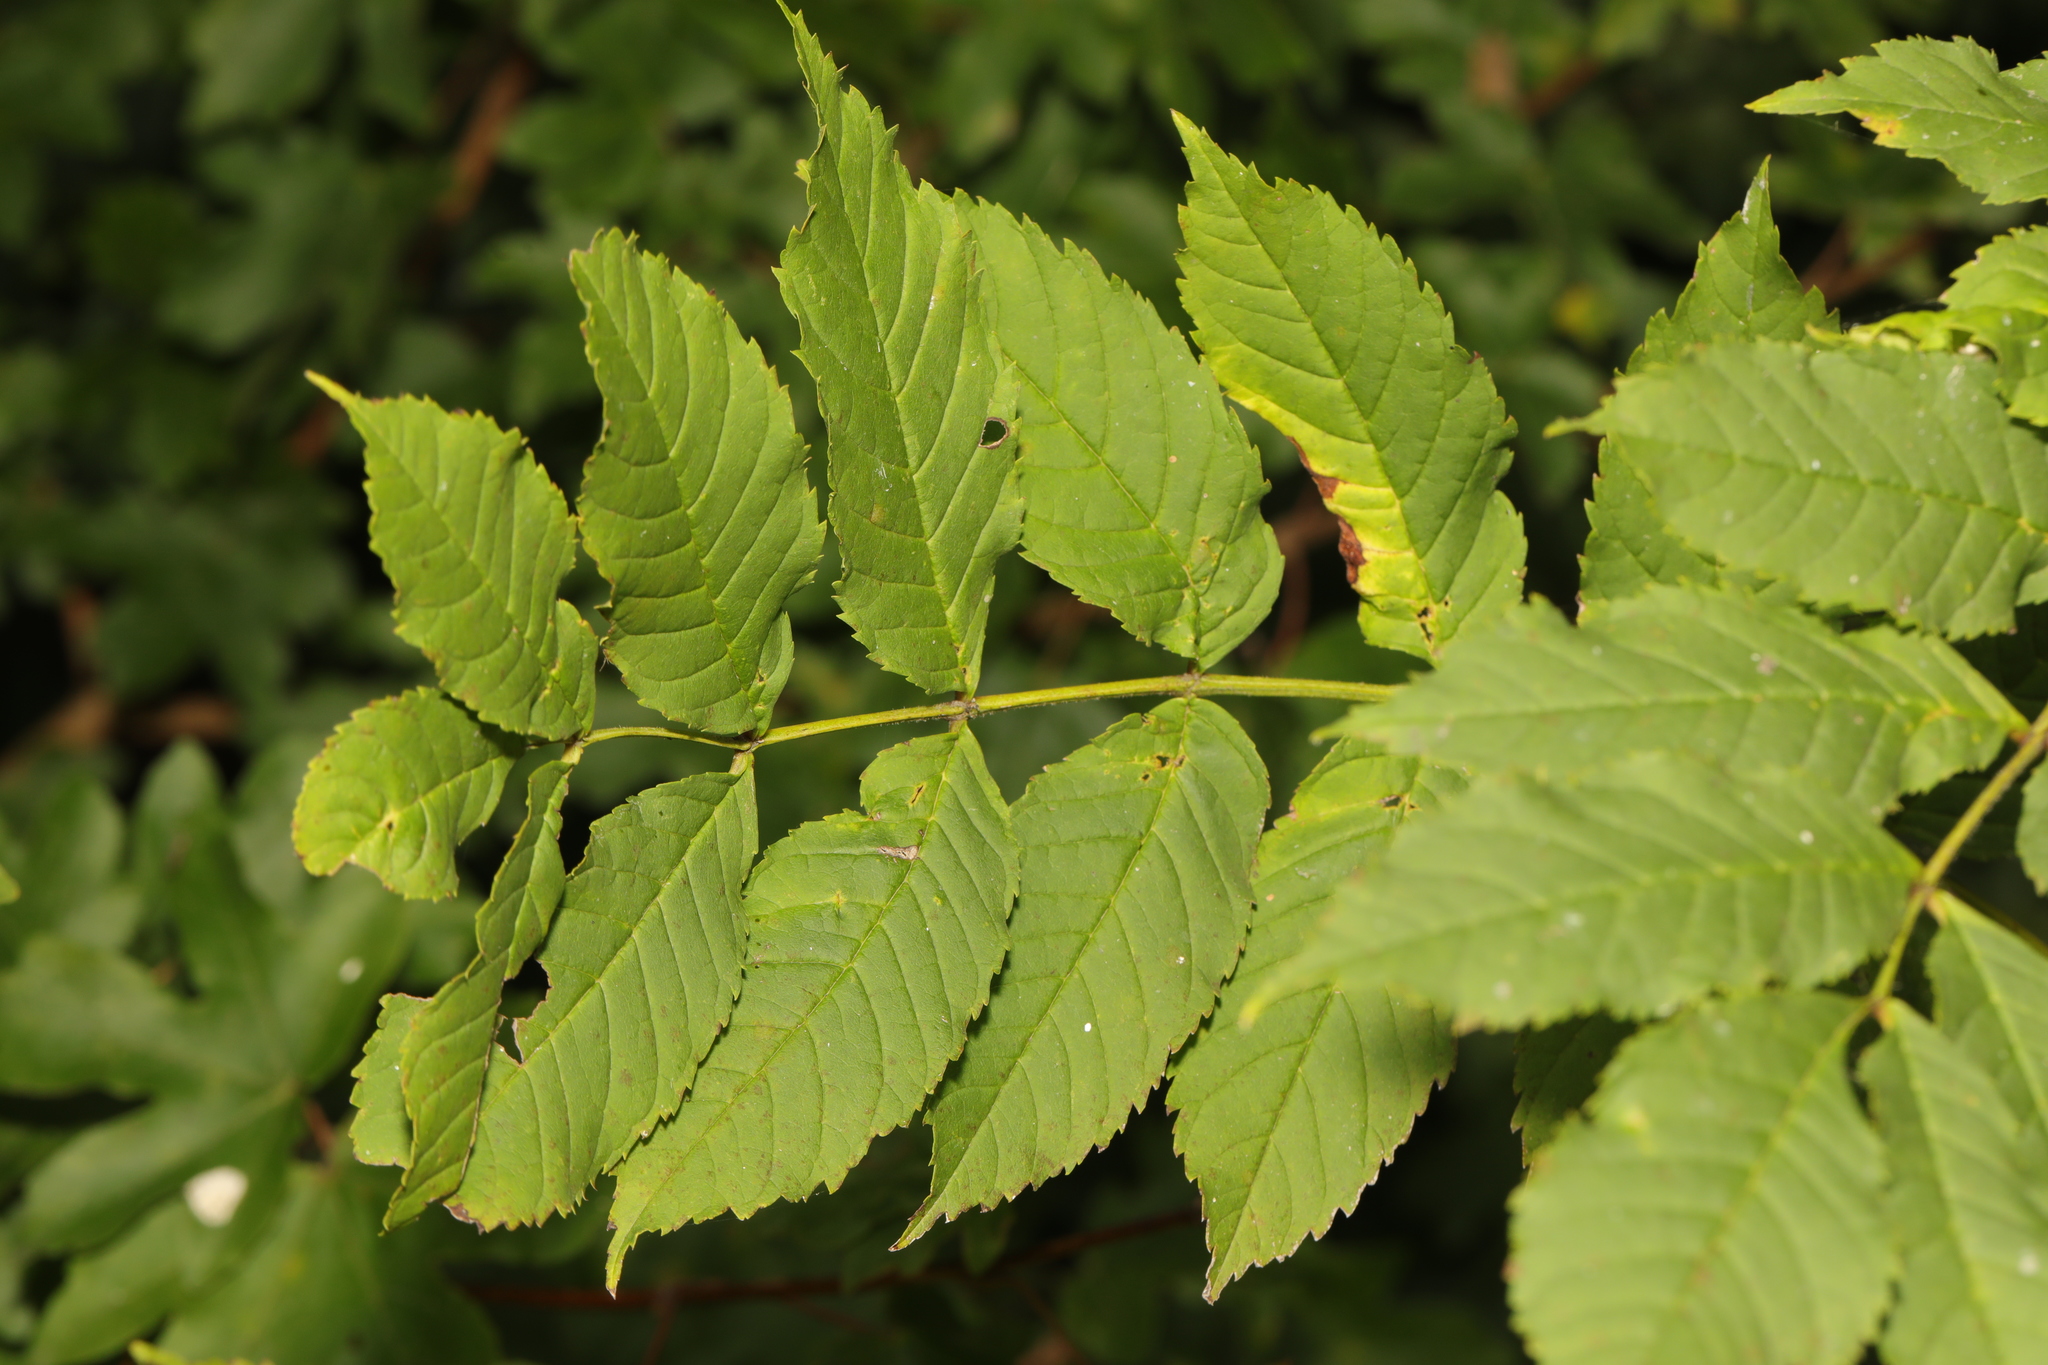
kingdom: Plantae
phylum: Tracheophyta
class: Magnoliopsida
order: Lamiales
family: Oleaceae
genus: Fraxinus
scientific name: Fraxinus excelsior
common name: European ash
